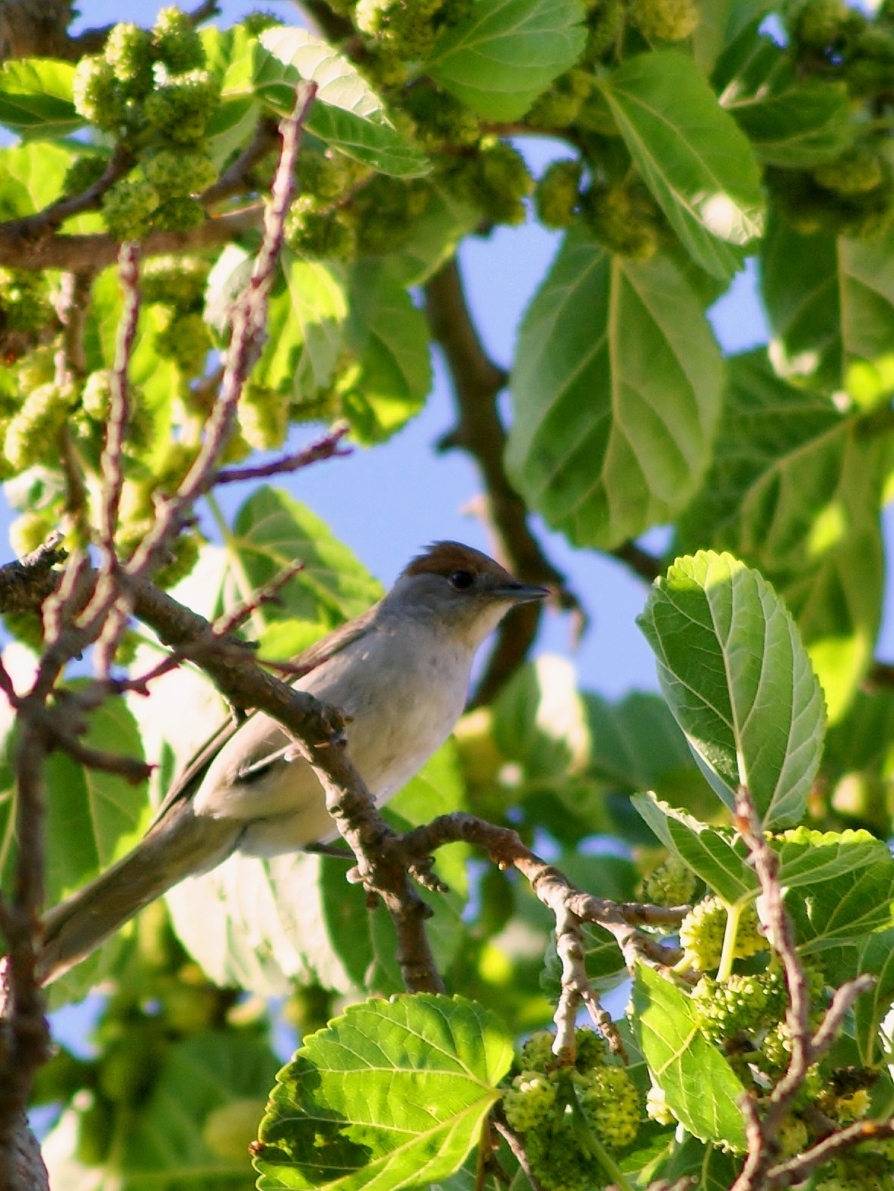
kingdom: Animalia
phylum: Chordata
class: Aves
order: Passeriformes
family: Sylviidae
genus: Sylvia
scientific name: Sylvia atricapilla
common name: Eurasian blackcap
